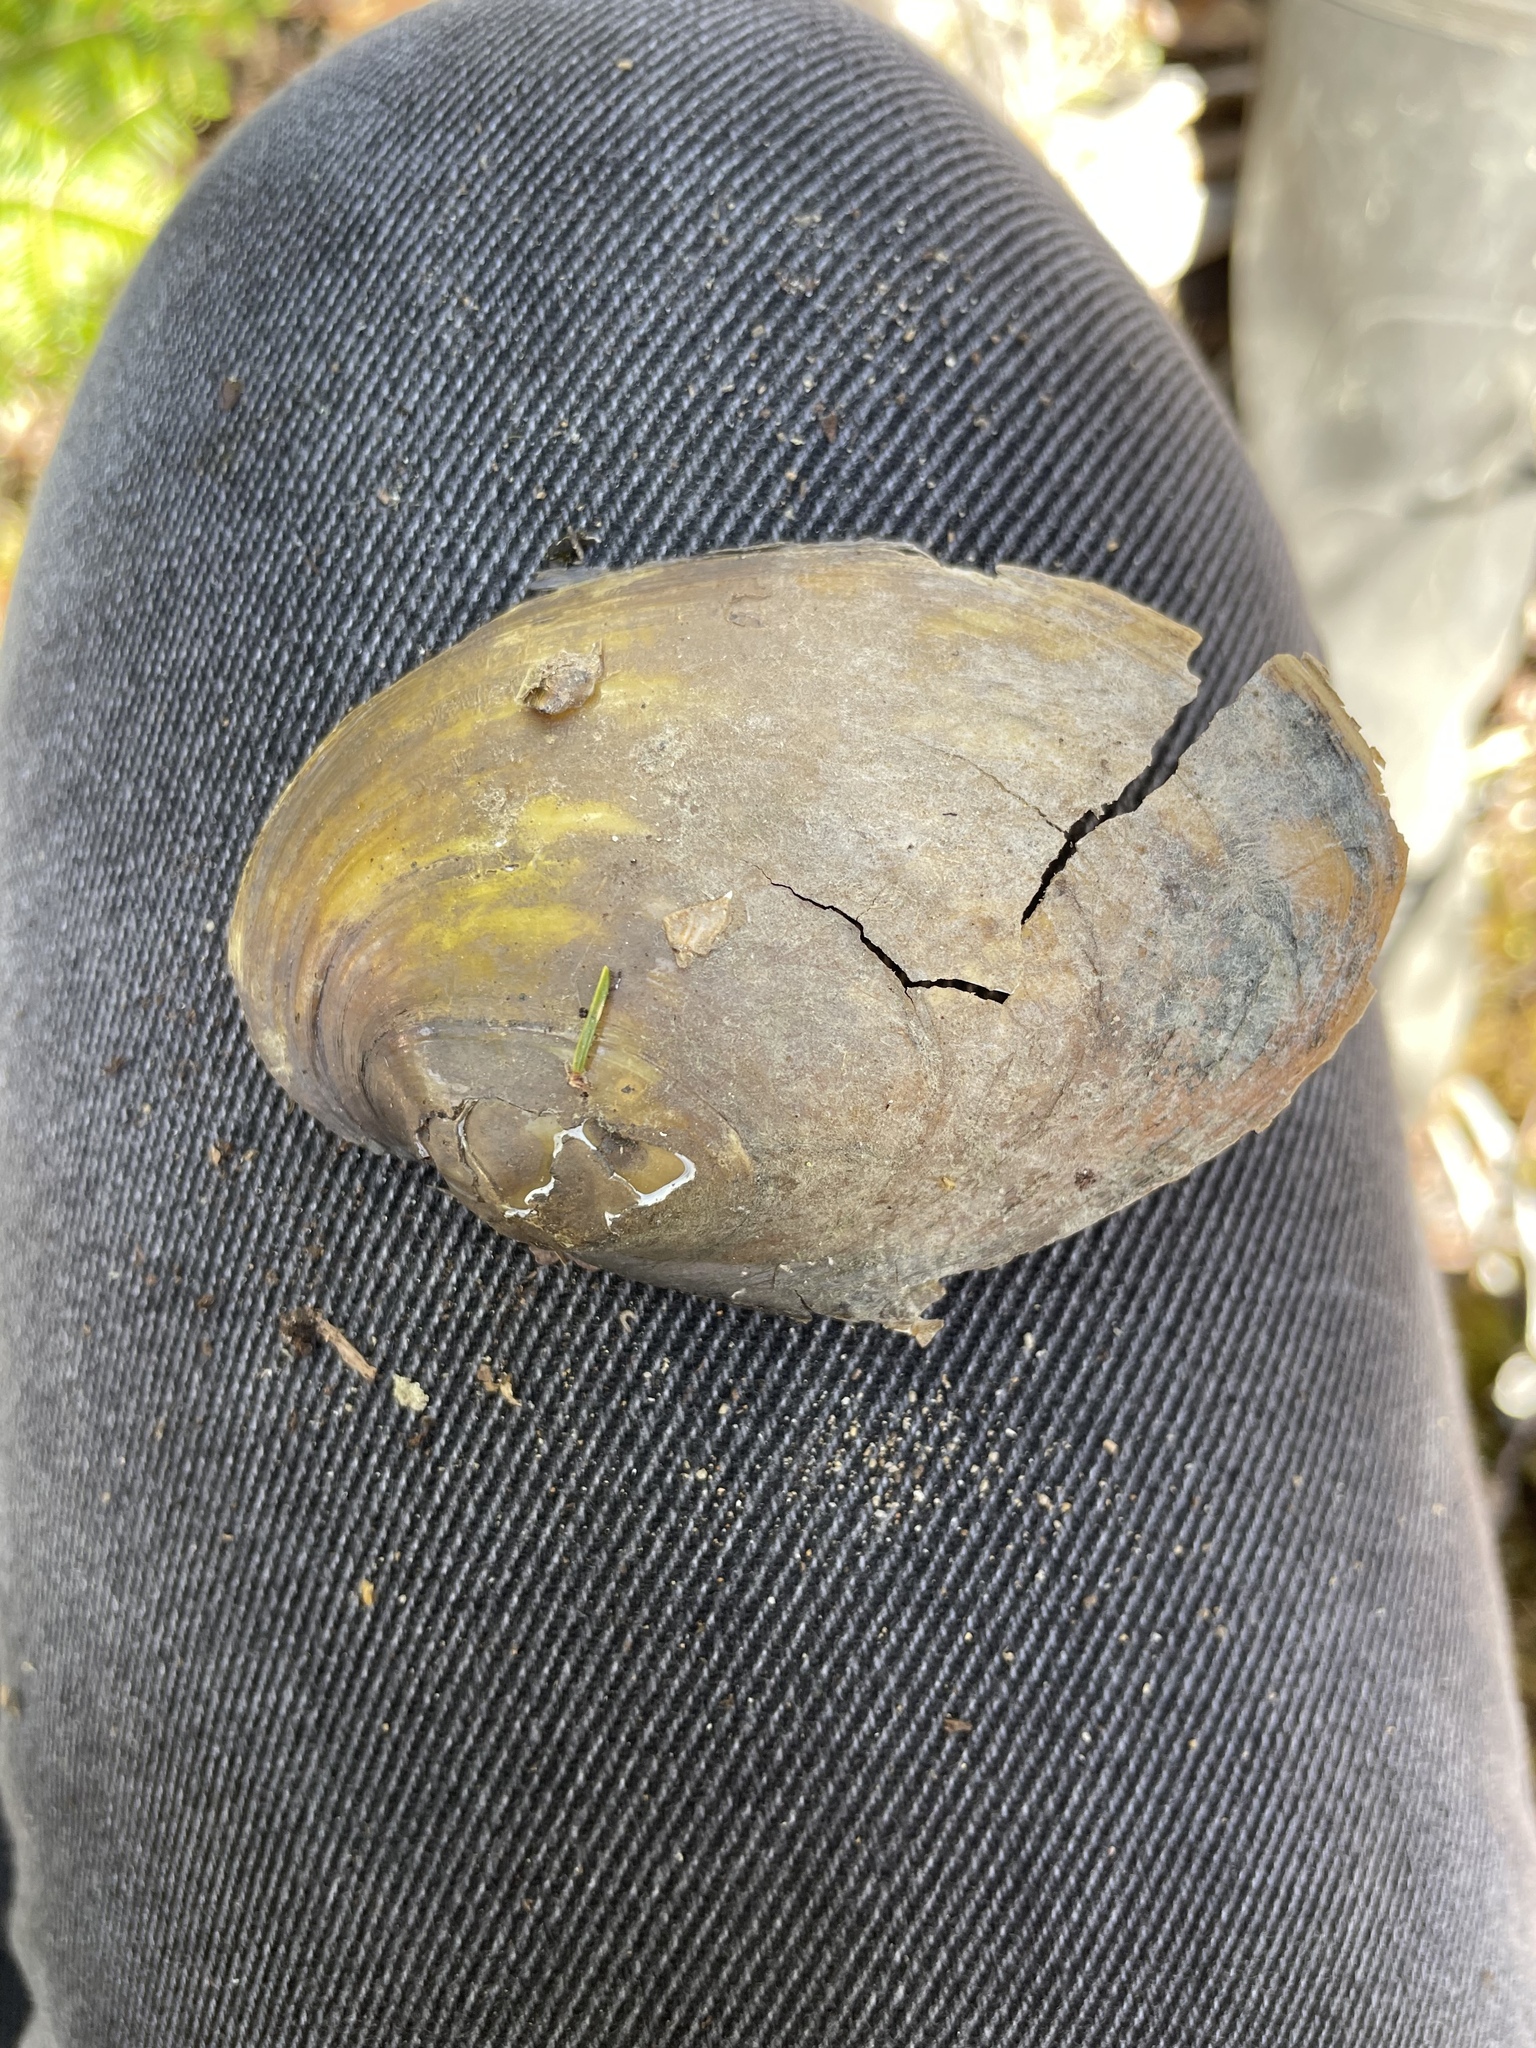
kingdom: Animalia
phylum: Mollusca
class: Bivalvia
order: Unionida
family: Unionidae
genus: Lampsilis
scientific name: Lampsilis cariosa
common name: Yellow lampmussel
